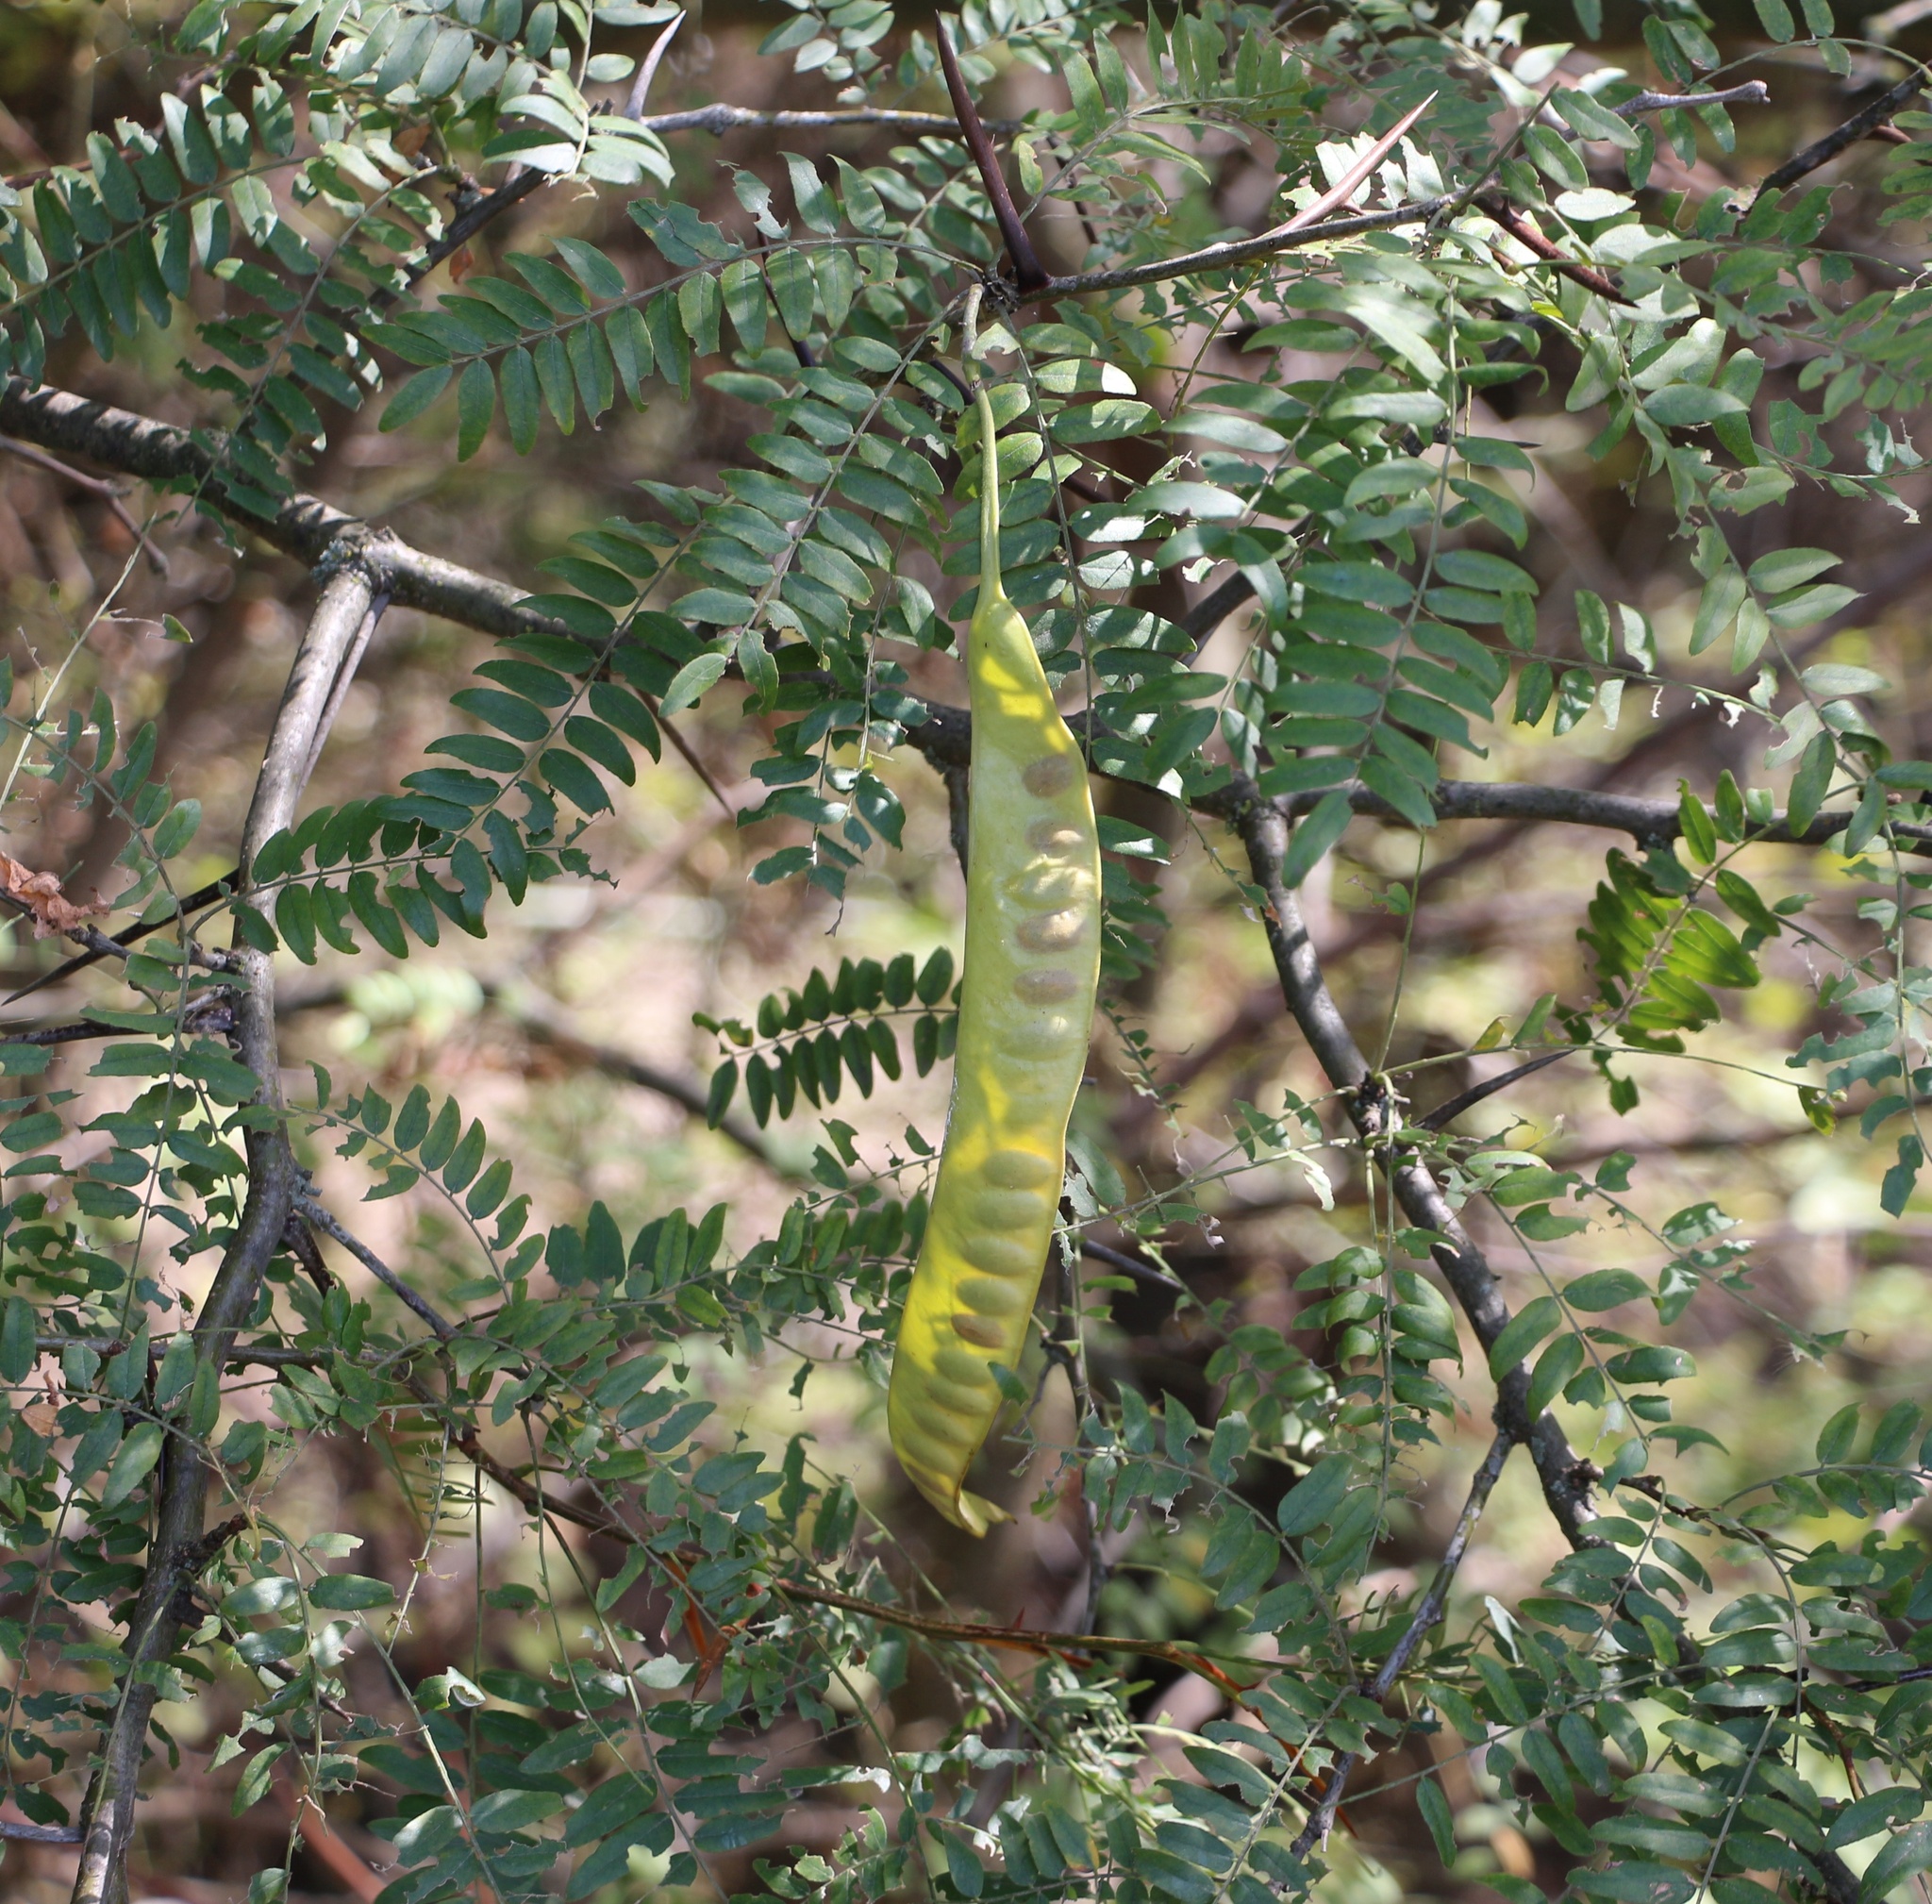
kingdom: Plantae
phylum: Tracheophyta
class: Magnoliopsida
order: Fabales
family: Fabaceae
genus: Gleditsia
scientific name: Gleditsia triacanthos
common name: Common honeylocust
